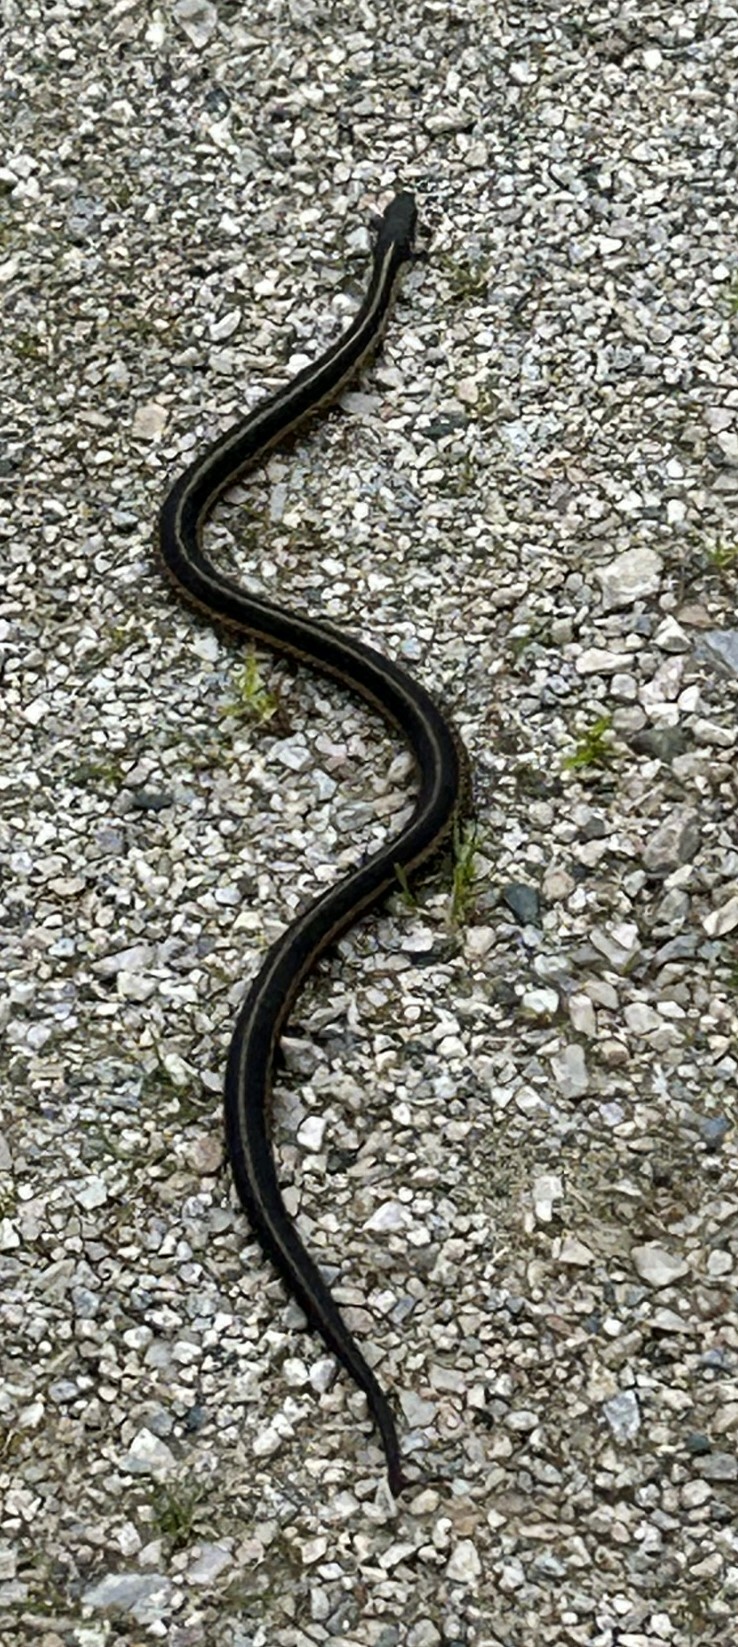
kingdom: Animalia
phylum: Chordata
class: Squamata
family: Colubridae
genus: Thamnophis
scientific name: Thamnophis sirtalis
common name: Common garter snake
